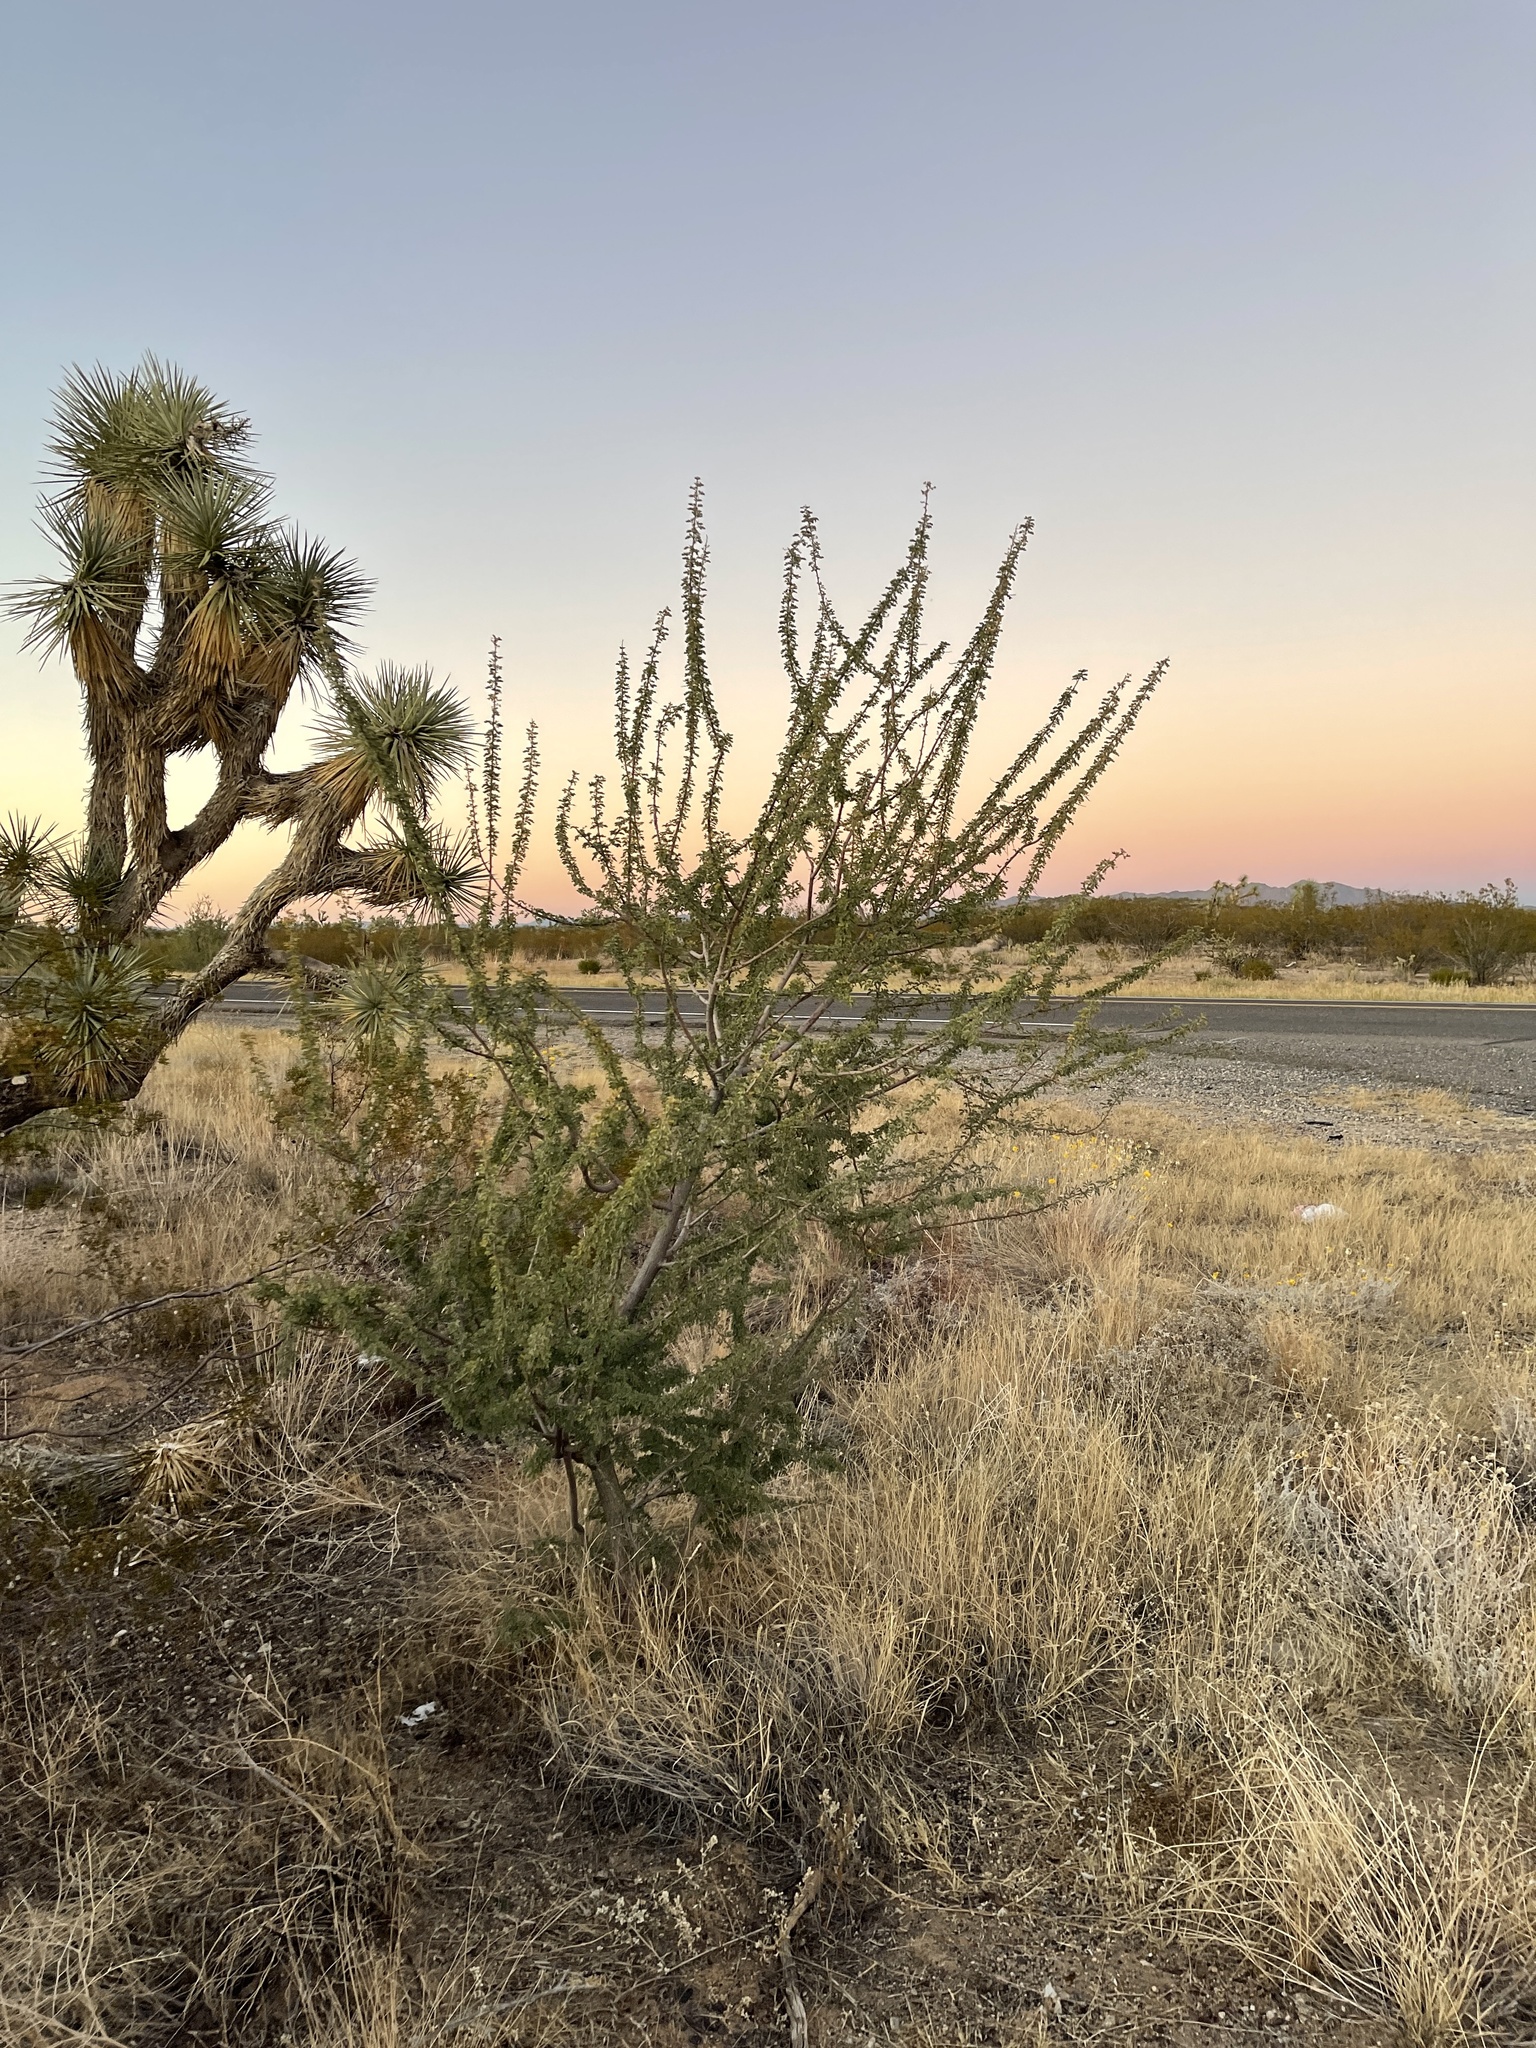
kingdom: Plantae
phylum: Tracheophyta
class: Magnoliopsida
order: Fabales
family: Fabaceae
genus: Senegalia
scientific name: Senegalia greggii
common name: Texas-mimosa
